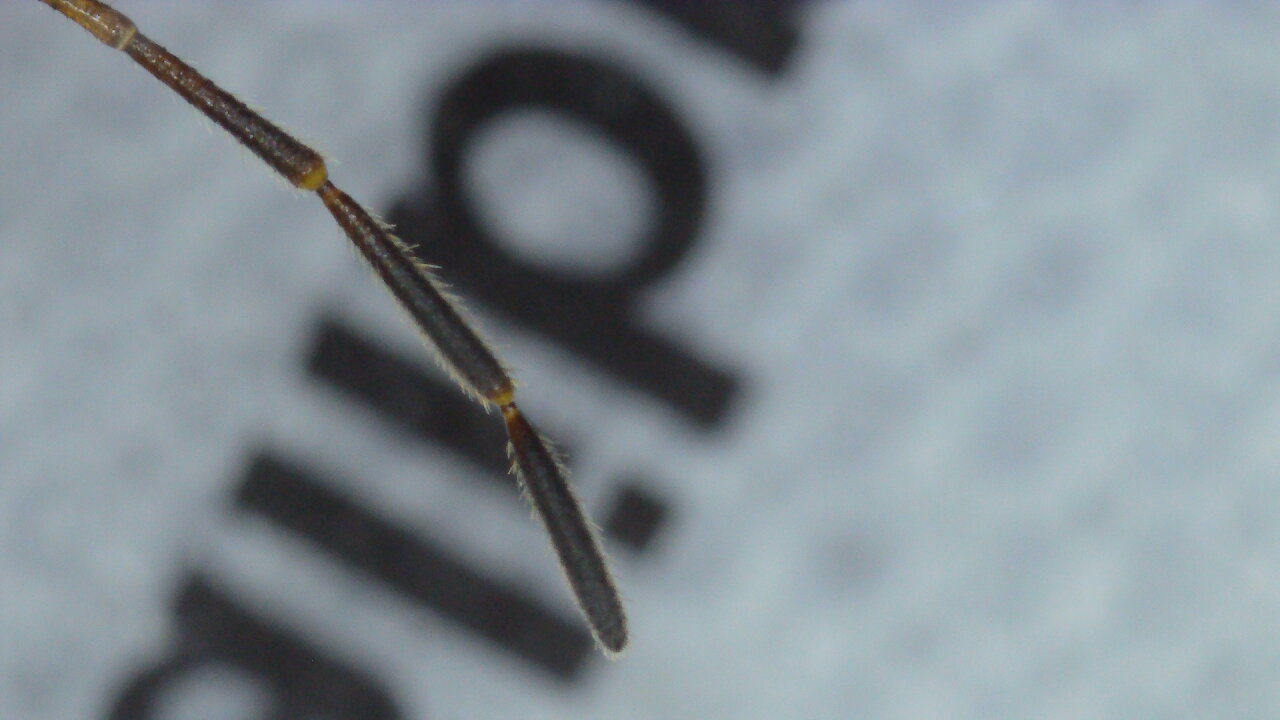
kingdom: Animalia
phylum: Arthropoda
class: Insecta
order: Hemiptera
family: Acanthosomatidae
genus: Elasmucha
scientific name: Elasmucha grisea
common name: Parent bug
